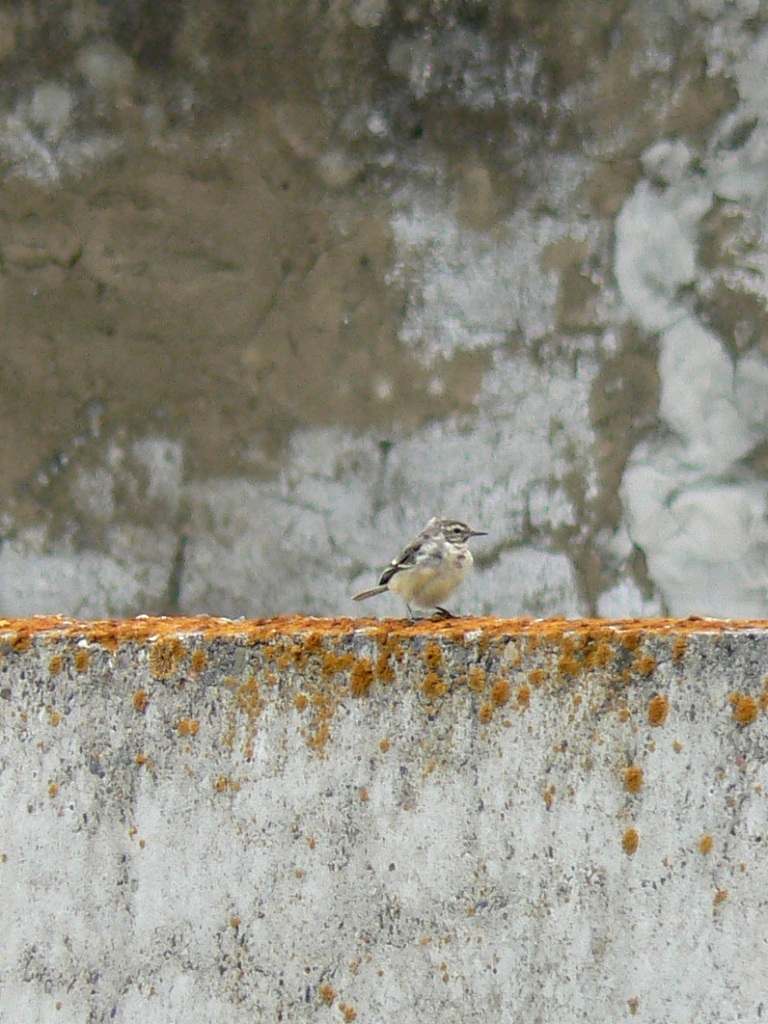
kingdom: Animalia
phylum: Chordata
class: Aves
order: Passeriformes
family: Motacillidae
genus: Motacilla
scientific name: Motacilla flava
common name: Western yellow wagtail
